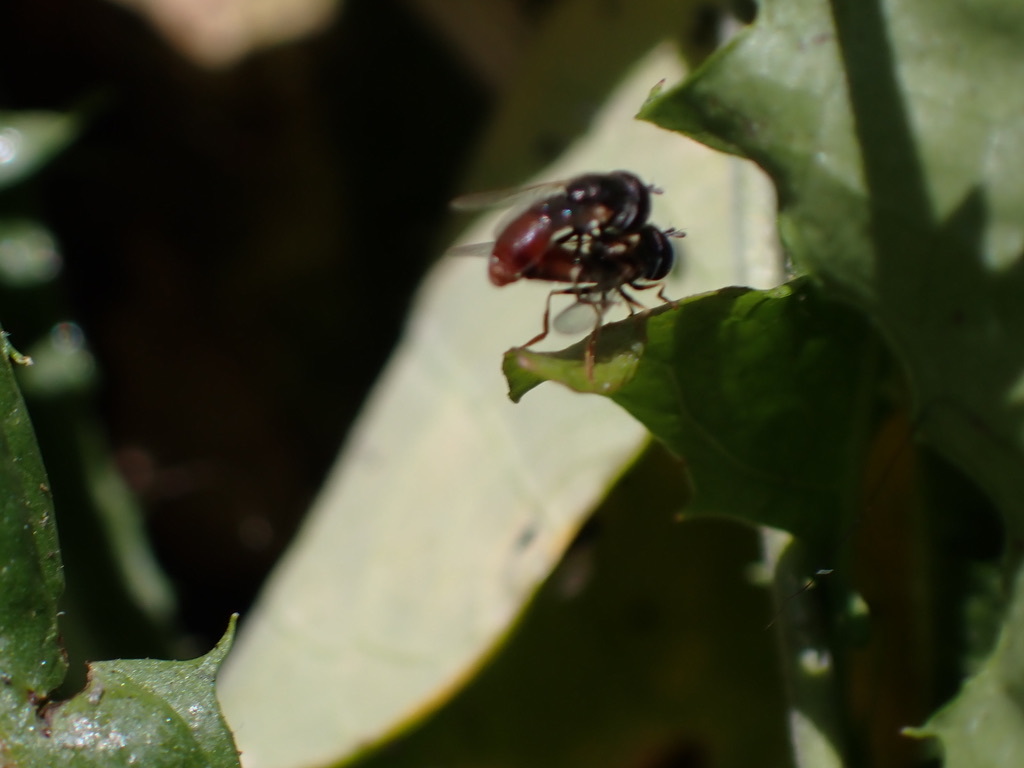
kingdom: Animalia
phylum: Arthropoda
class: Insecta
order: Diptera
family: Syrphidae
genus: Paragus
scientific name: Paragus haemorrhous
